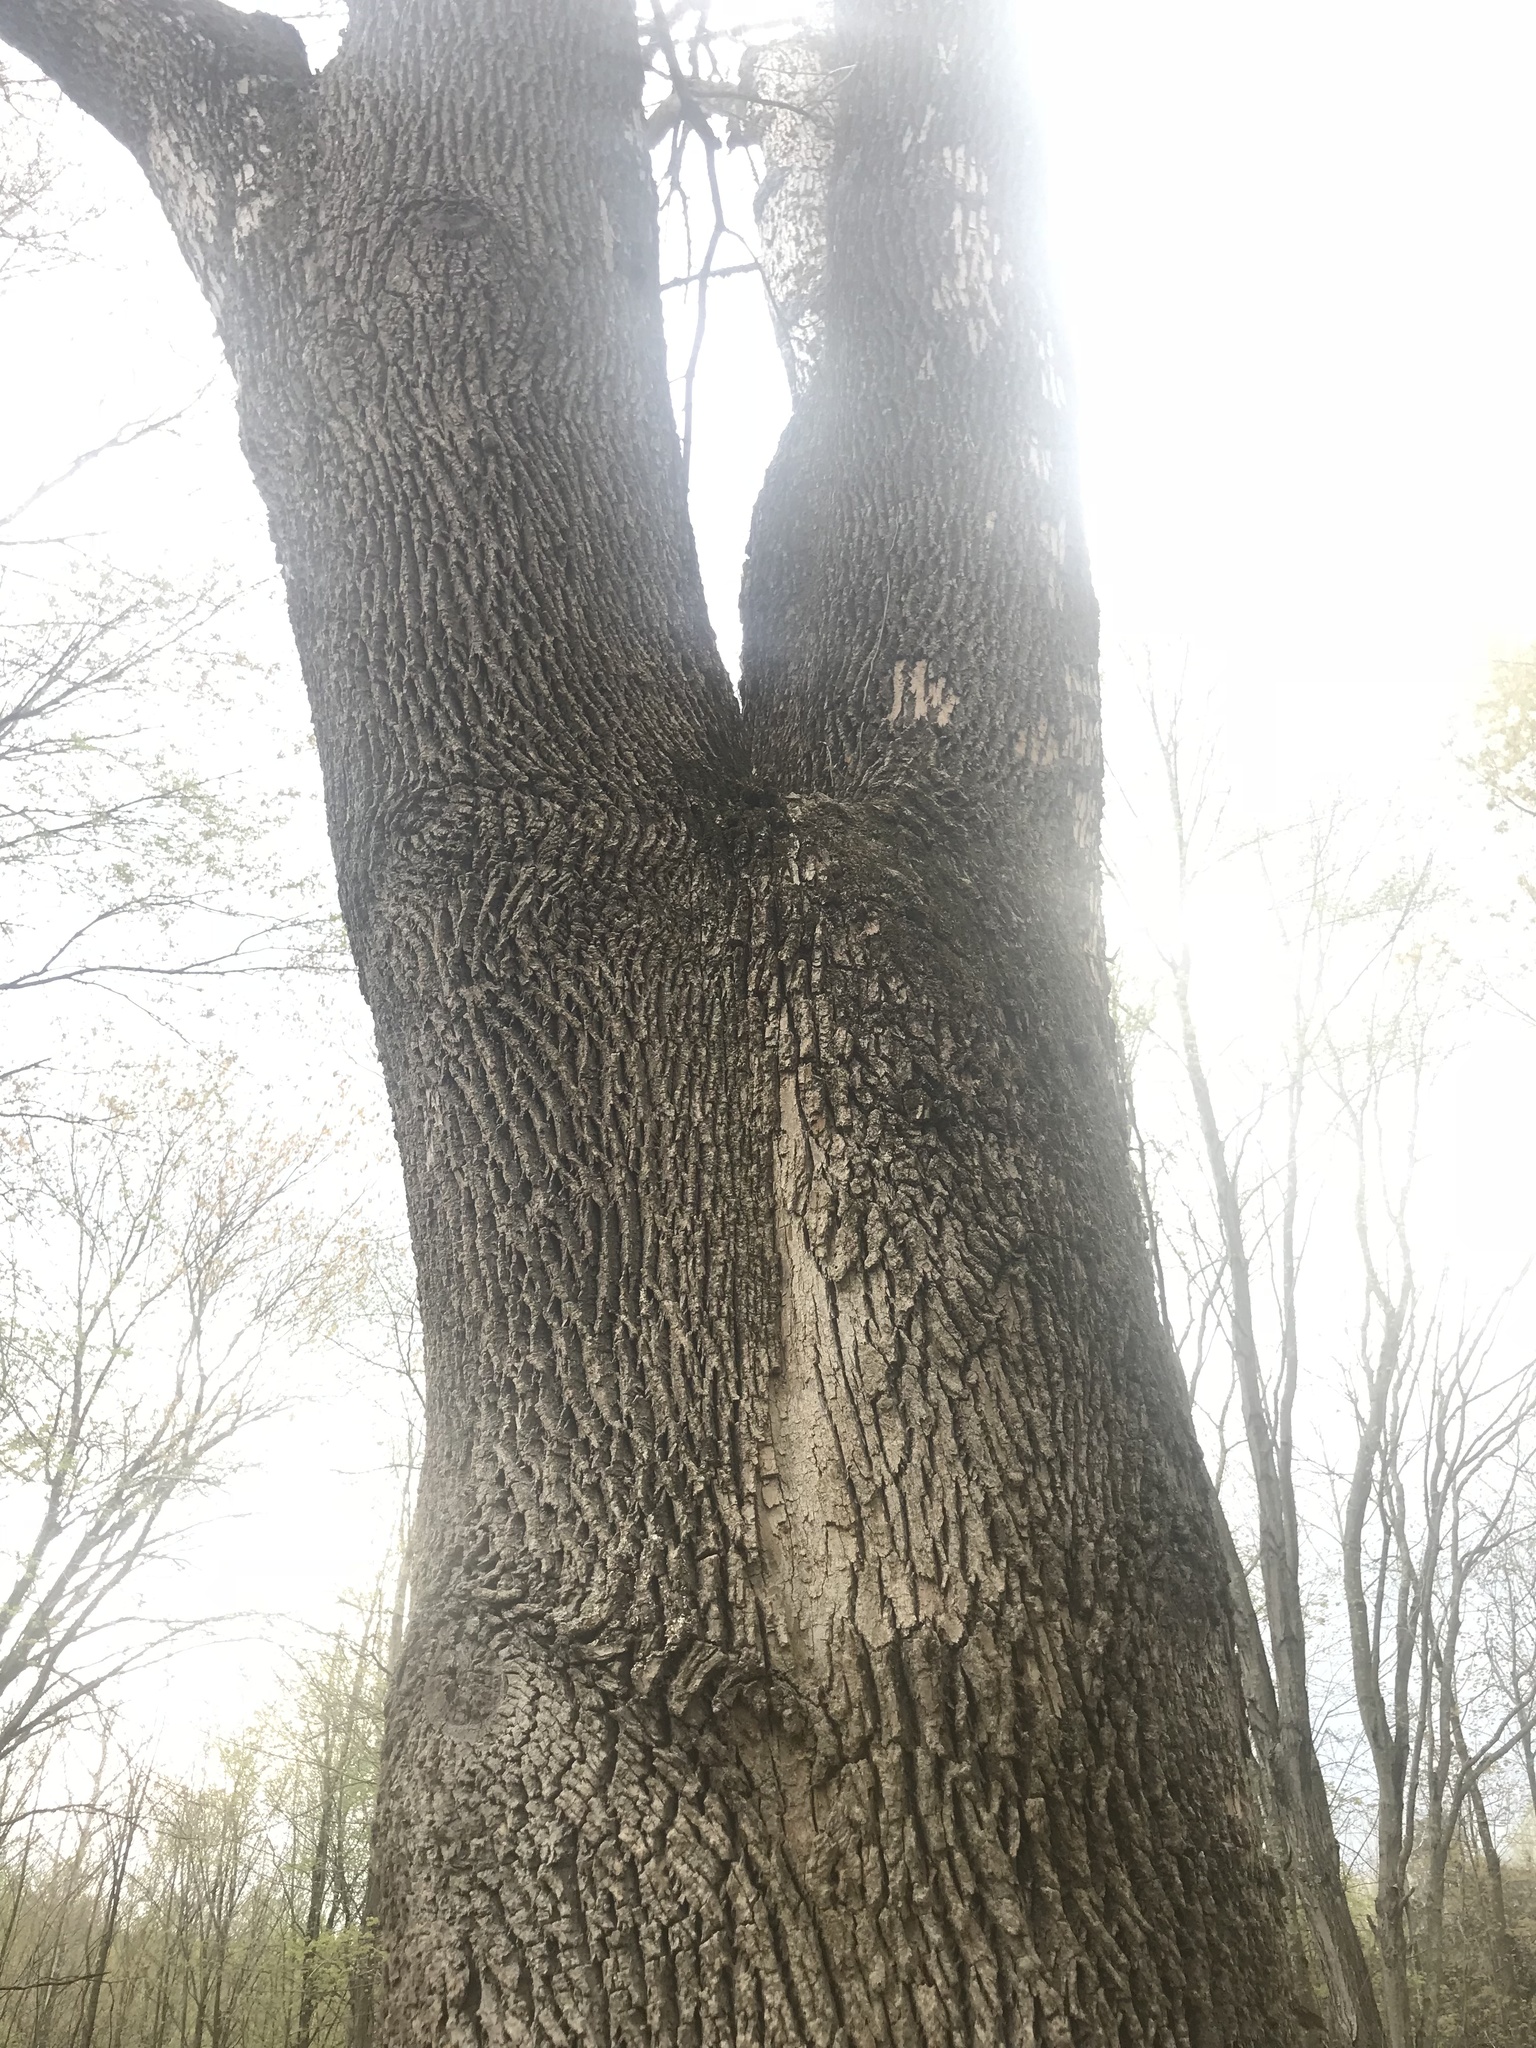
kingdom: Animalia
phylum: Arthropoda
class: Insecta
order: Coleoptera
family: Buprestidae
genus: Agrilus
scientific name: Agrilus planipennis
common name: Emerald ash borer
